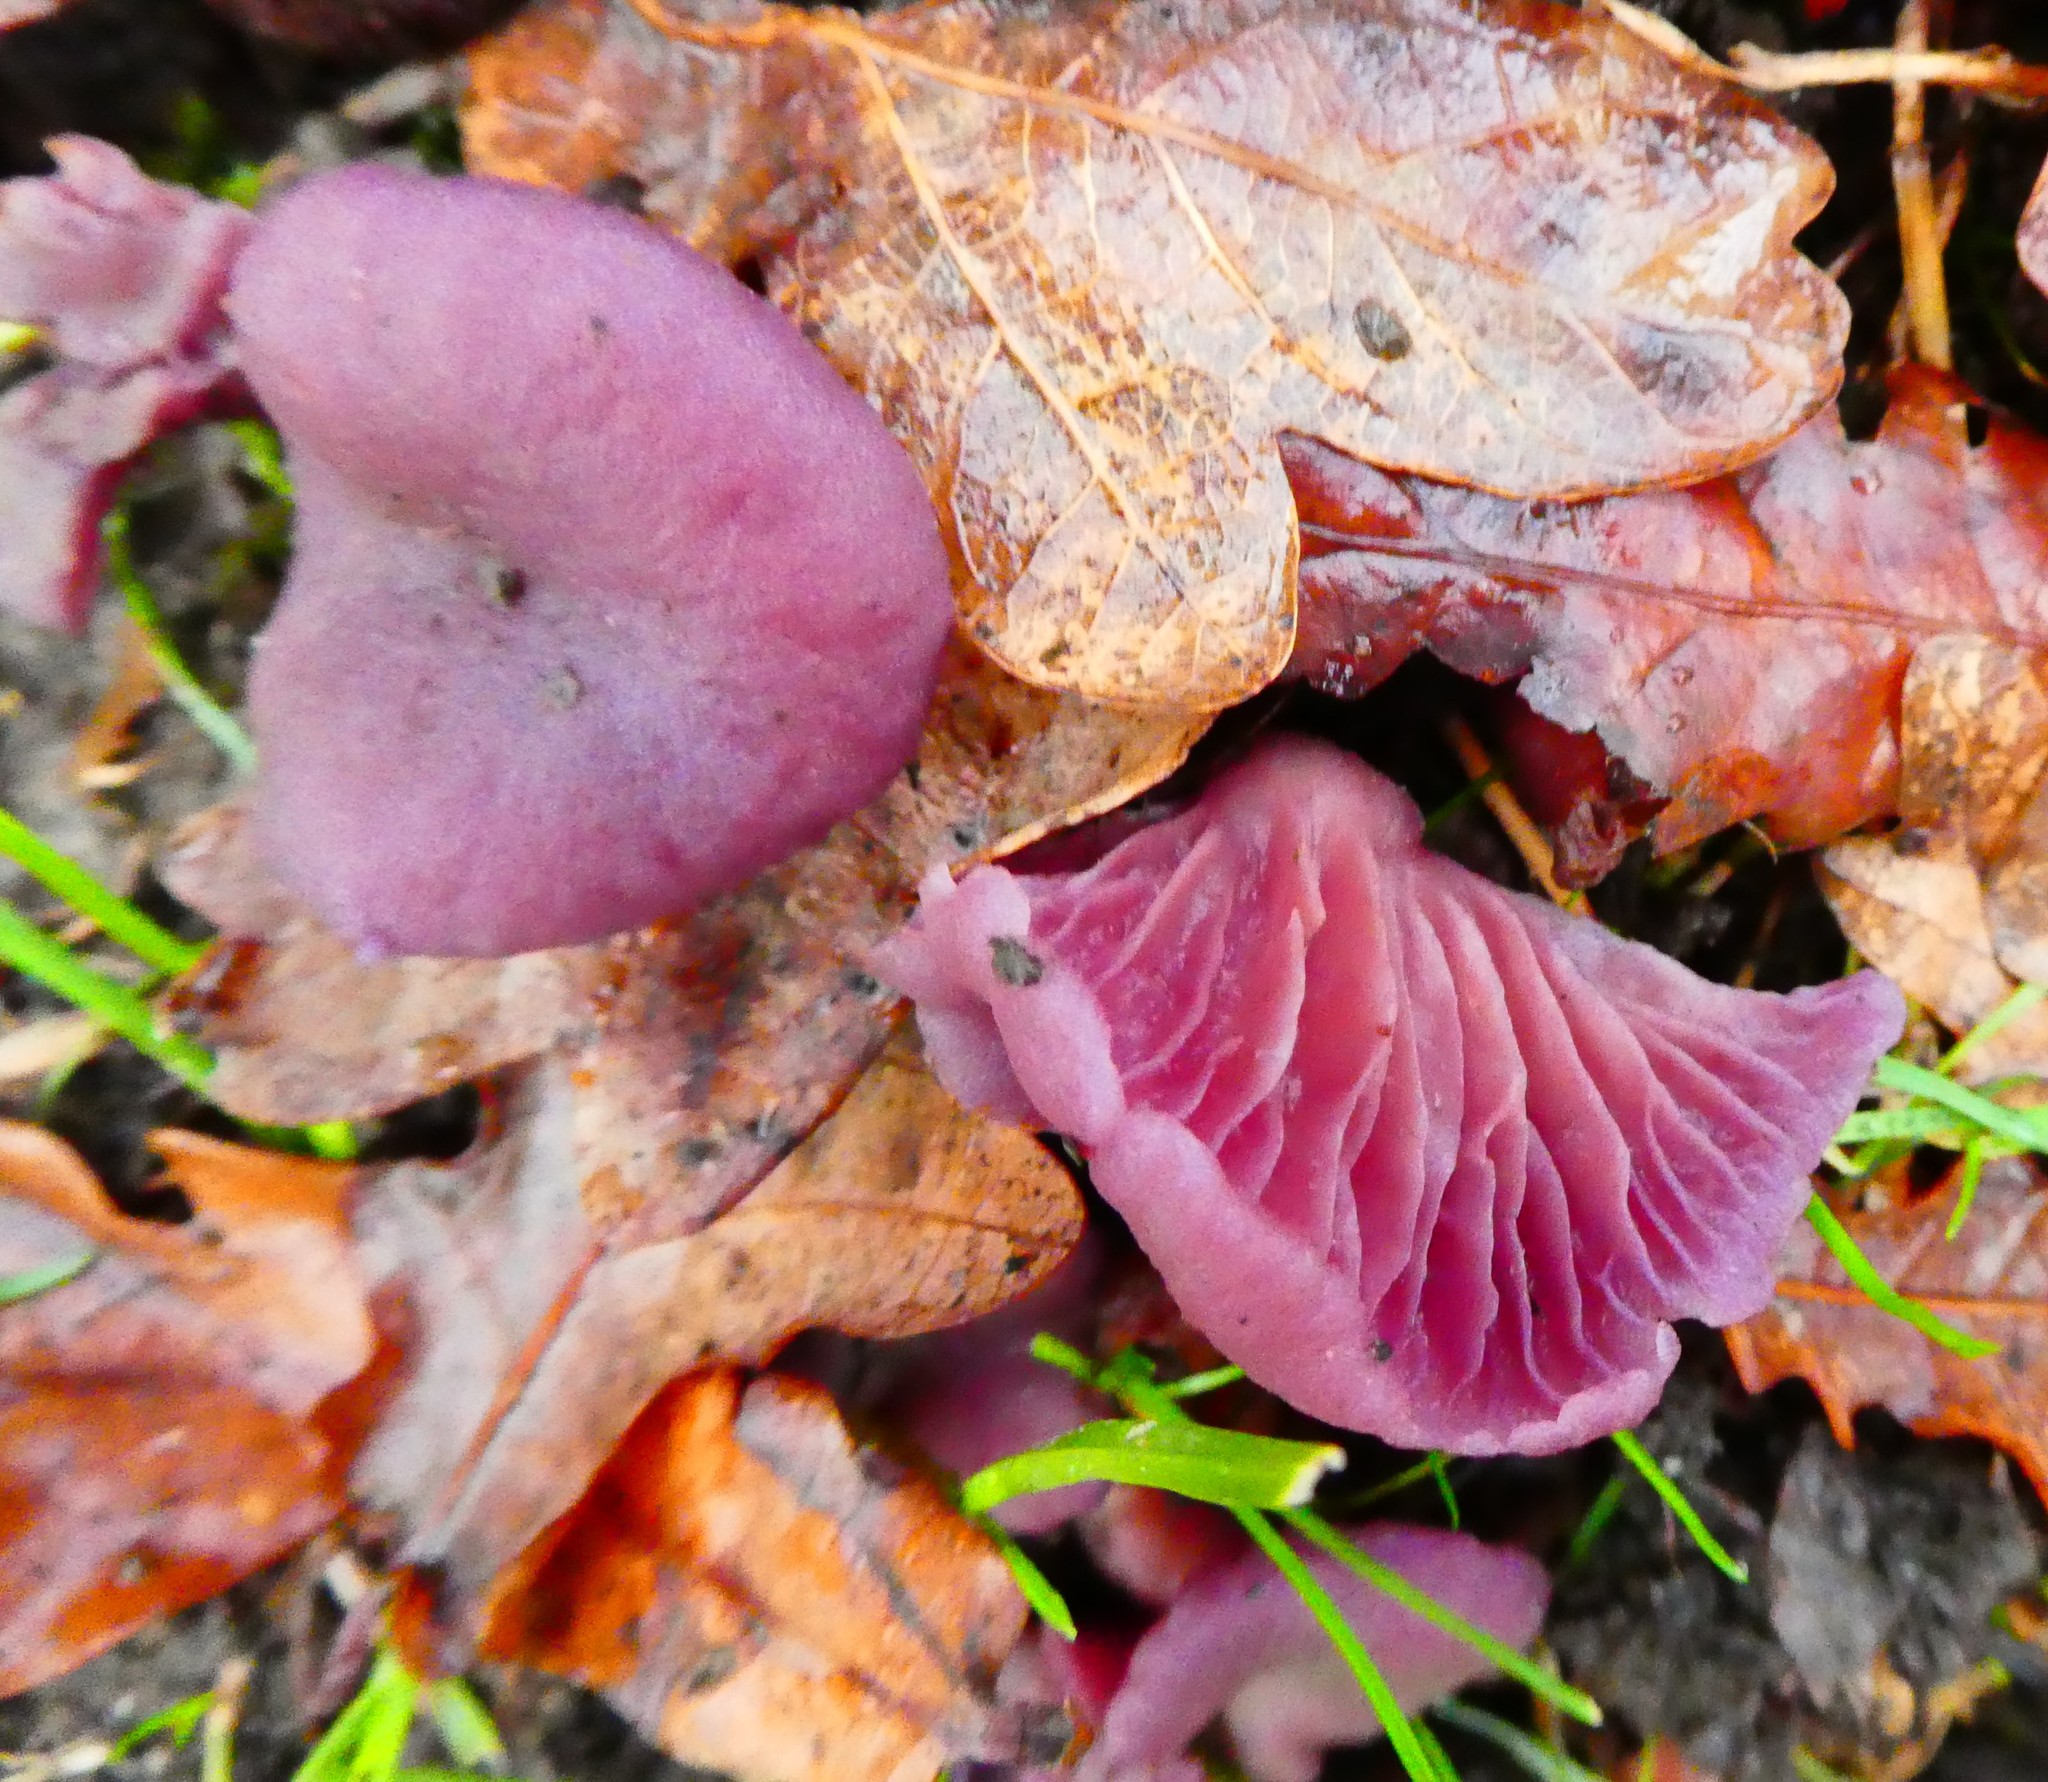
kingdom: Fungi
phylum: Basidiomycota
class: Agaricomycetes
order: Agaricales
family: Hydnangiaceae
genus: Laccaria
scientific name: Laccaria amethystina
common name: Amethyst deceiver
